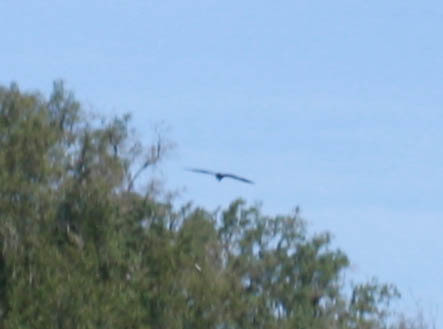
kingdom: Animalia
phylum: Chordata
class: Aves
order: Accipitriformes
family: Accipitridae
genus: Haliaeetus
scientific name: Haliaeetus leucocephalus
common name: Bald eagle
